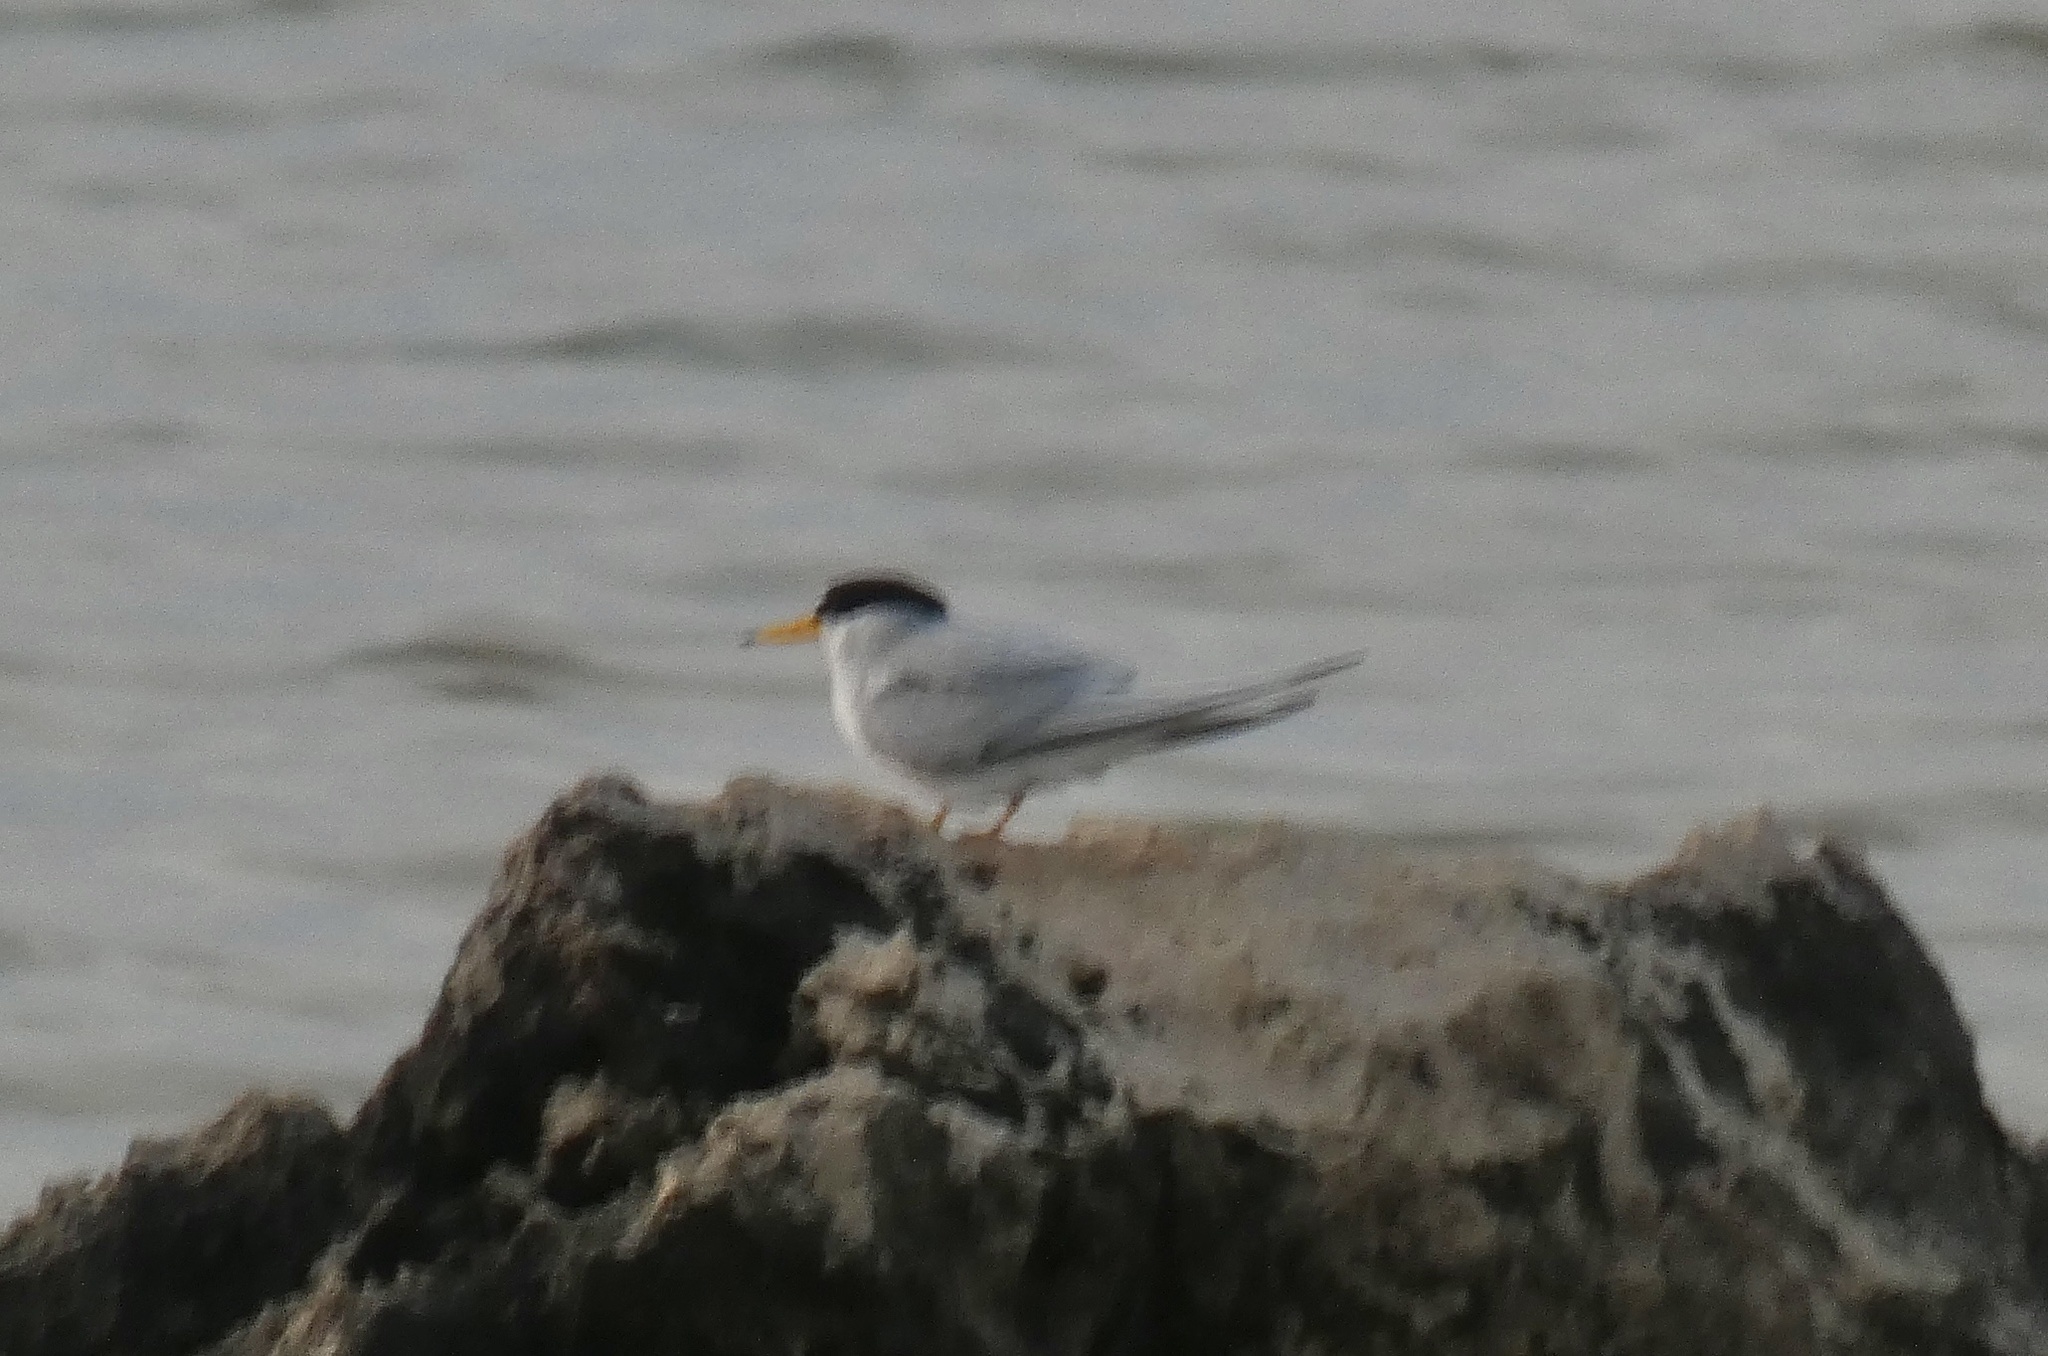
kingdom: Animalia
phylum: Chordata
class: Aves
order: Charadriiformes
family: Laridae
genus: Sternula
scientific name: Sternula antillarum
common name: Least tern
